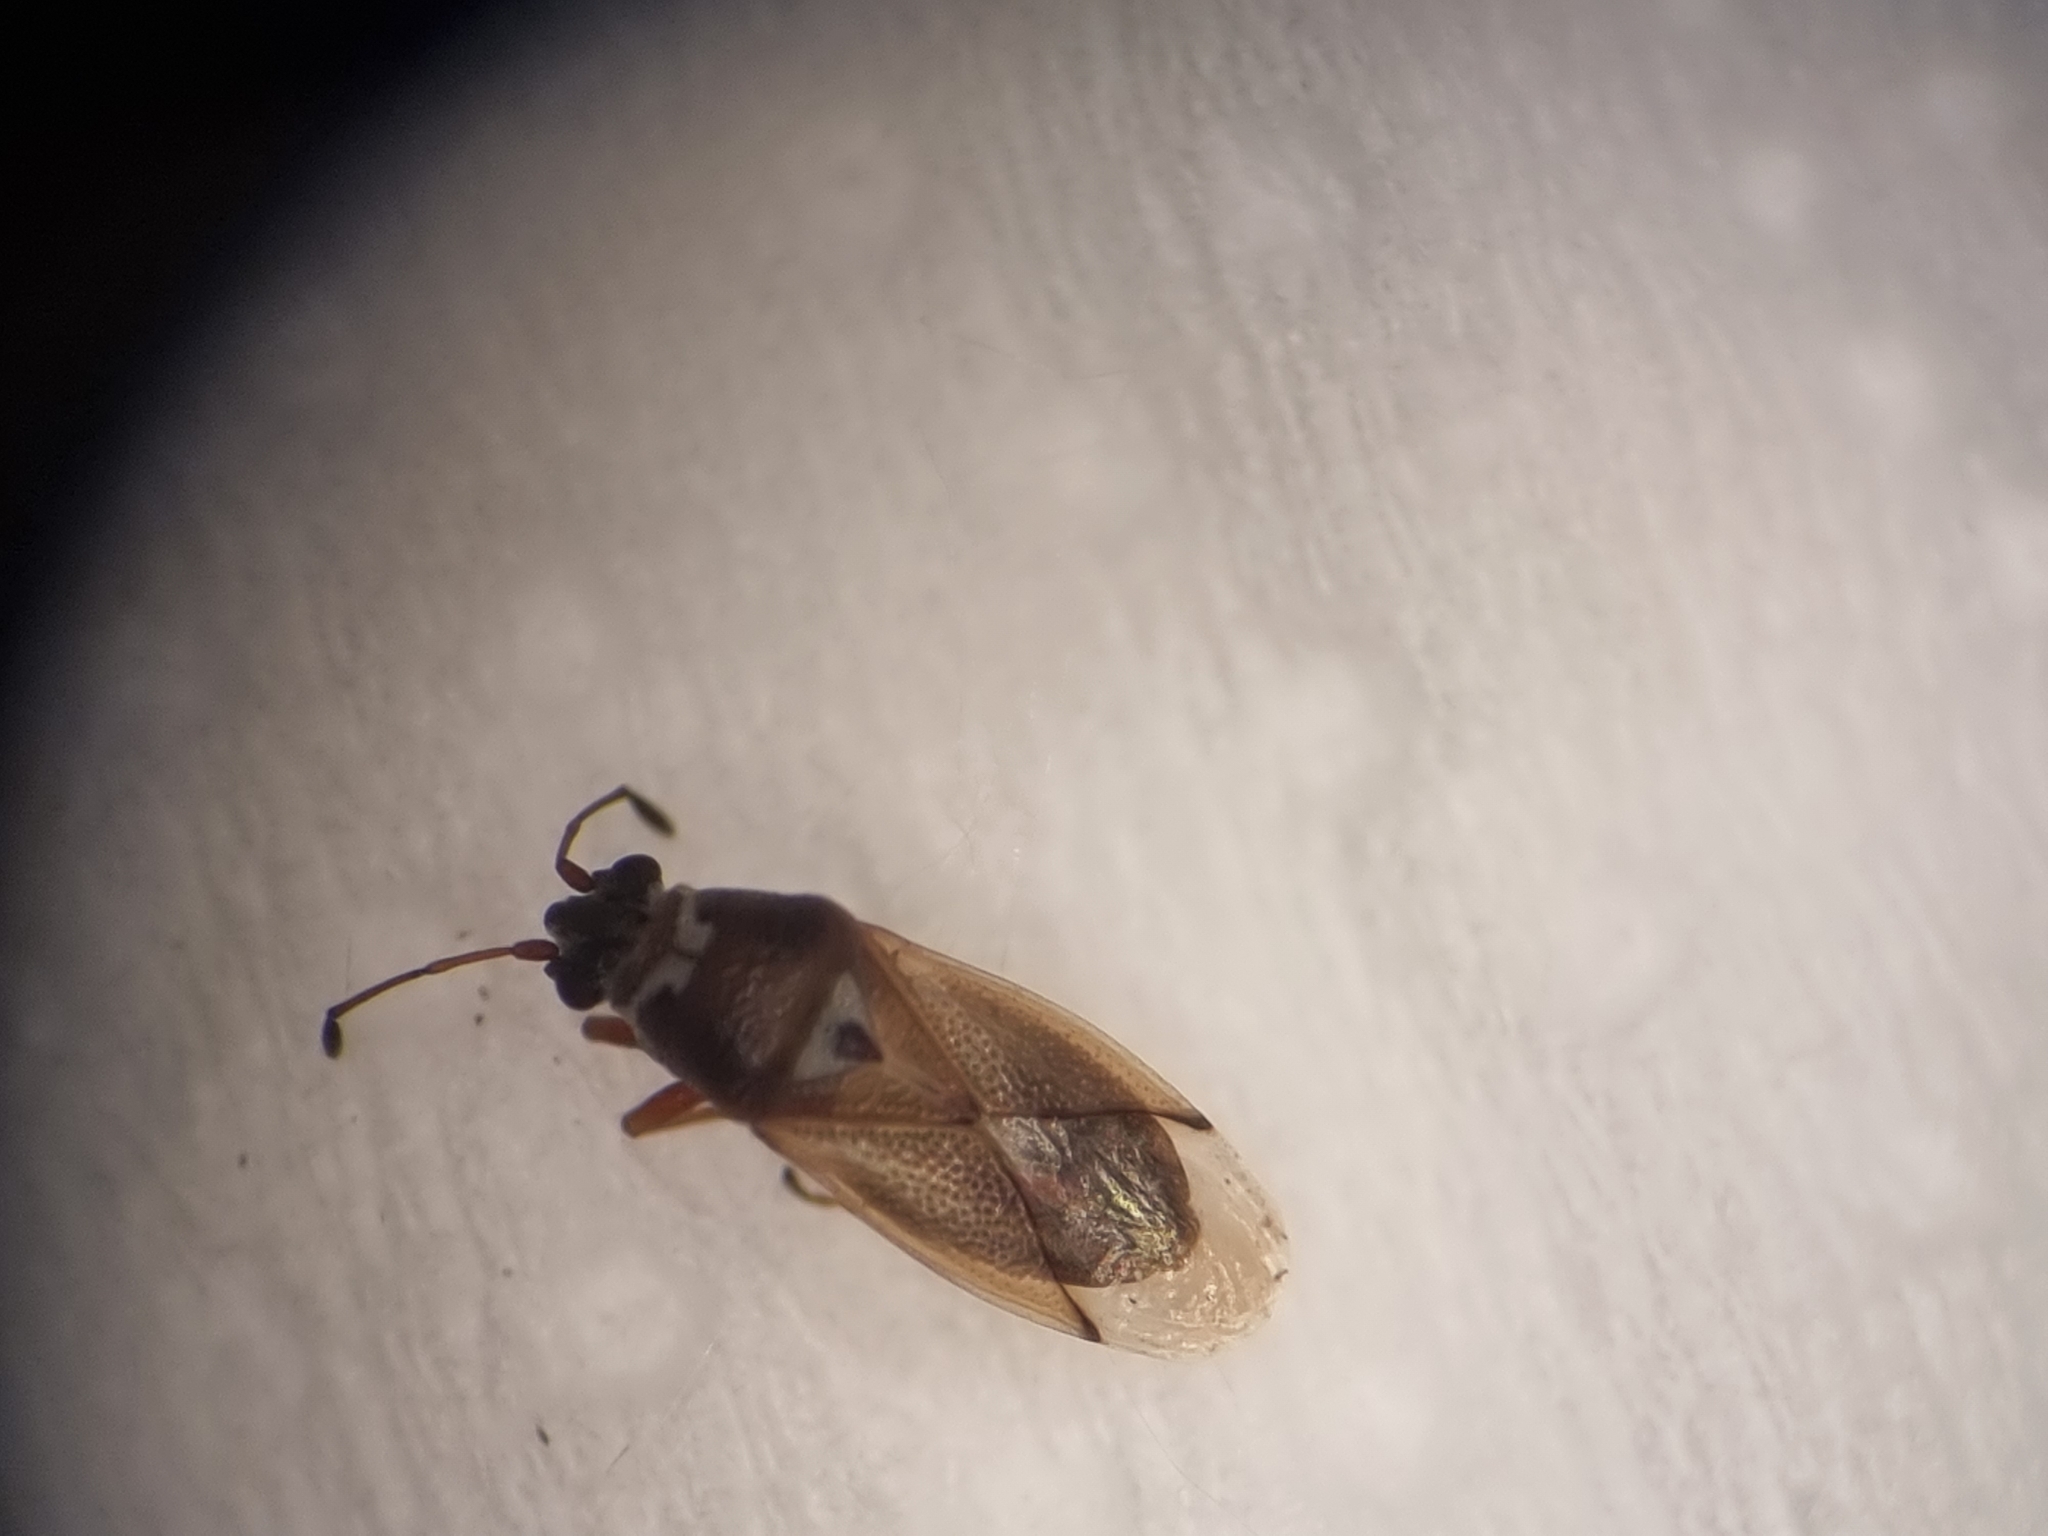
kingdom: Animalia
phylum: Arthropoda
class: Insecta
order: Hemiptera
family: Cymidae
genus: Cymus
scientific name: Cymus melanocephalus
